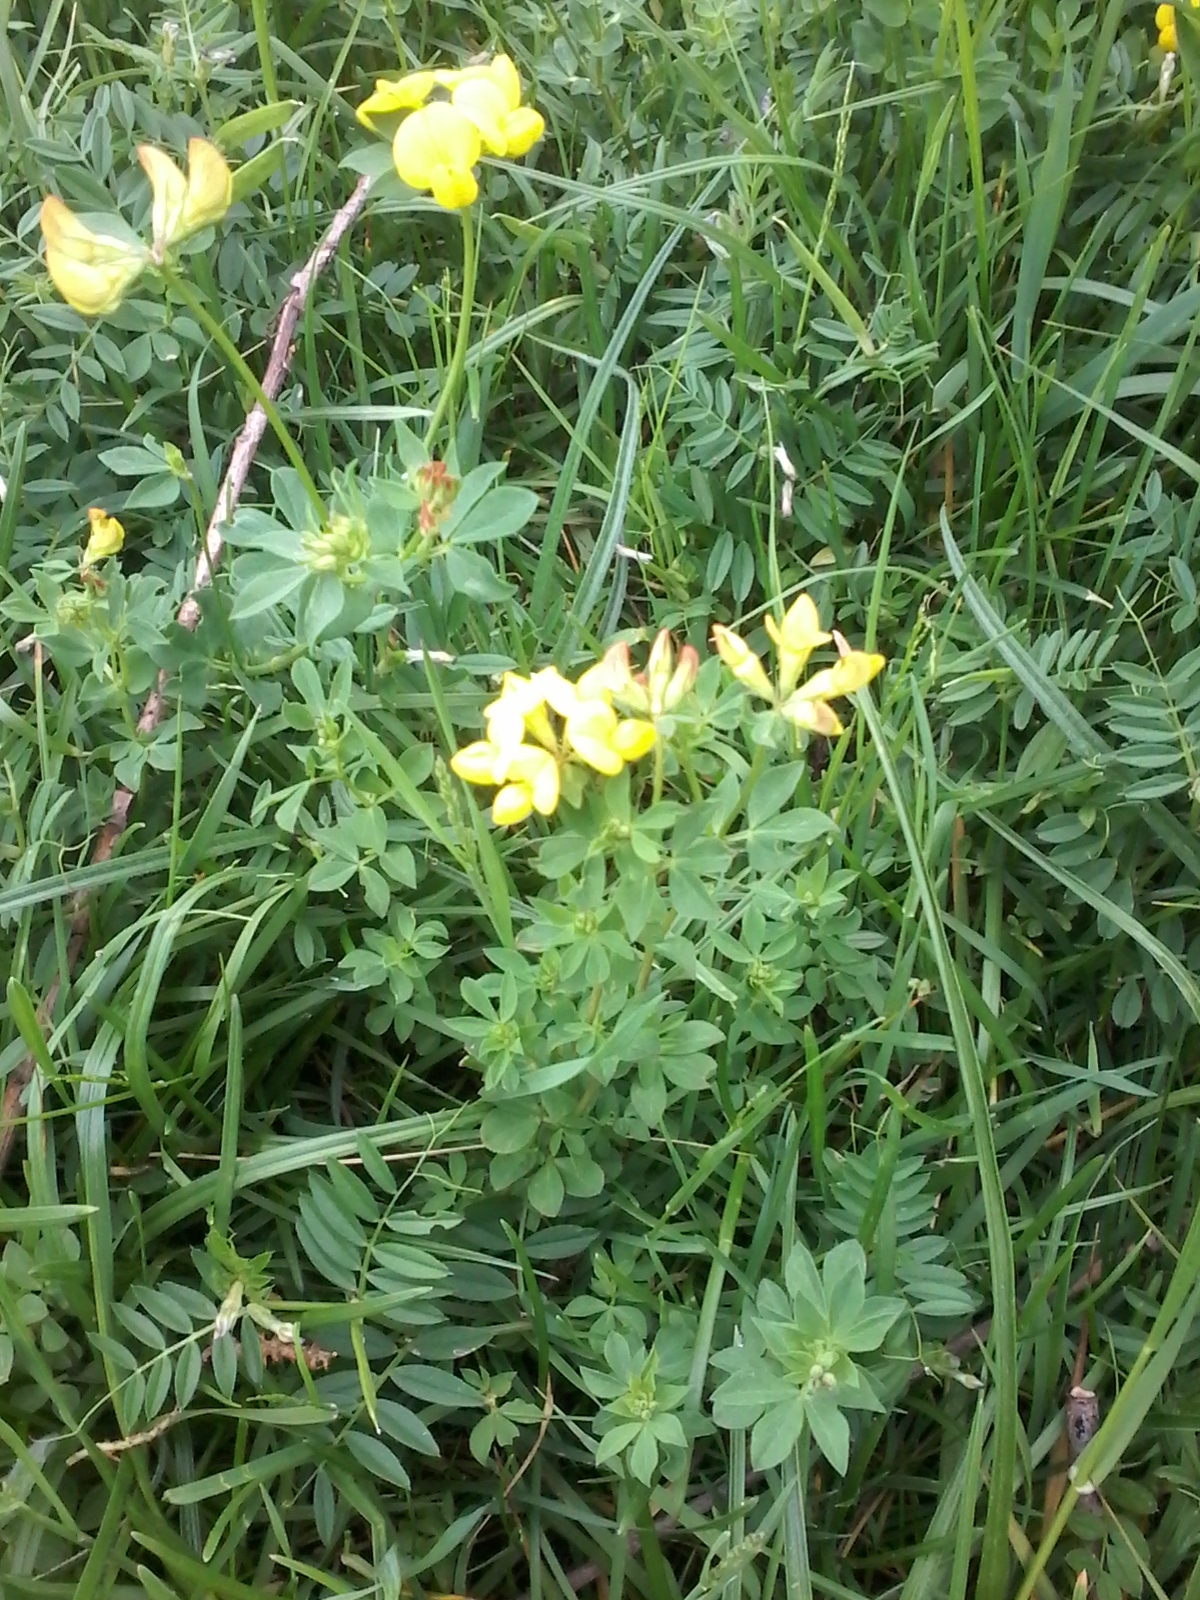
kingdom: Plantae
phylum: Tracheophyta
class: Magnoliopsida
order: Fabales
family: Fabaceae
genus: Lotus
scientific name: Lotus corniculatus
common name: Common bird's-foot-trefoil
